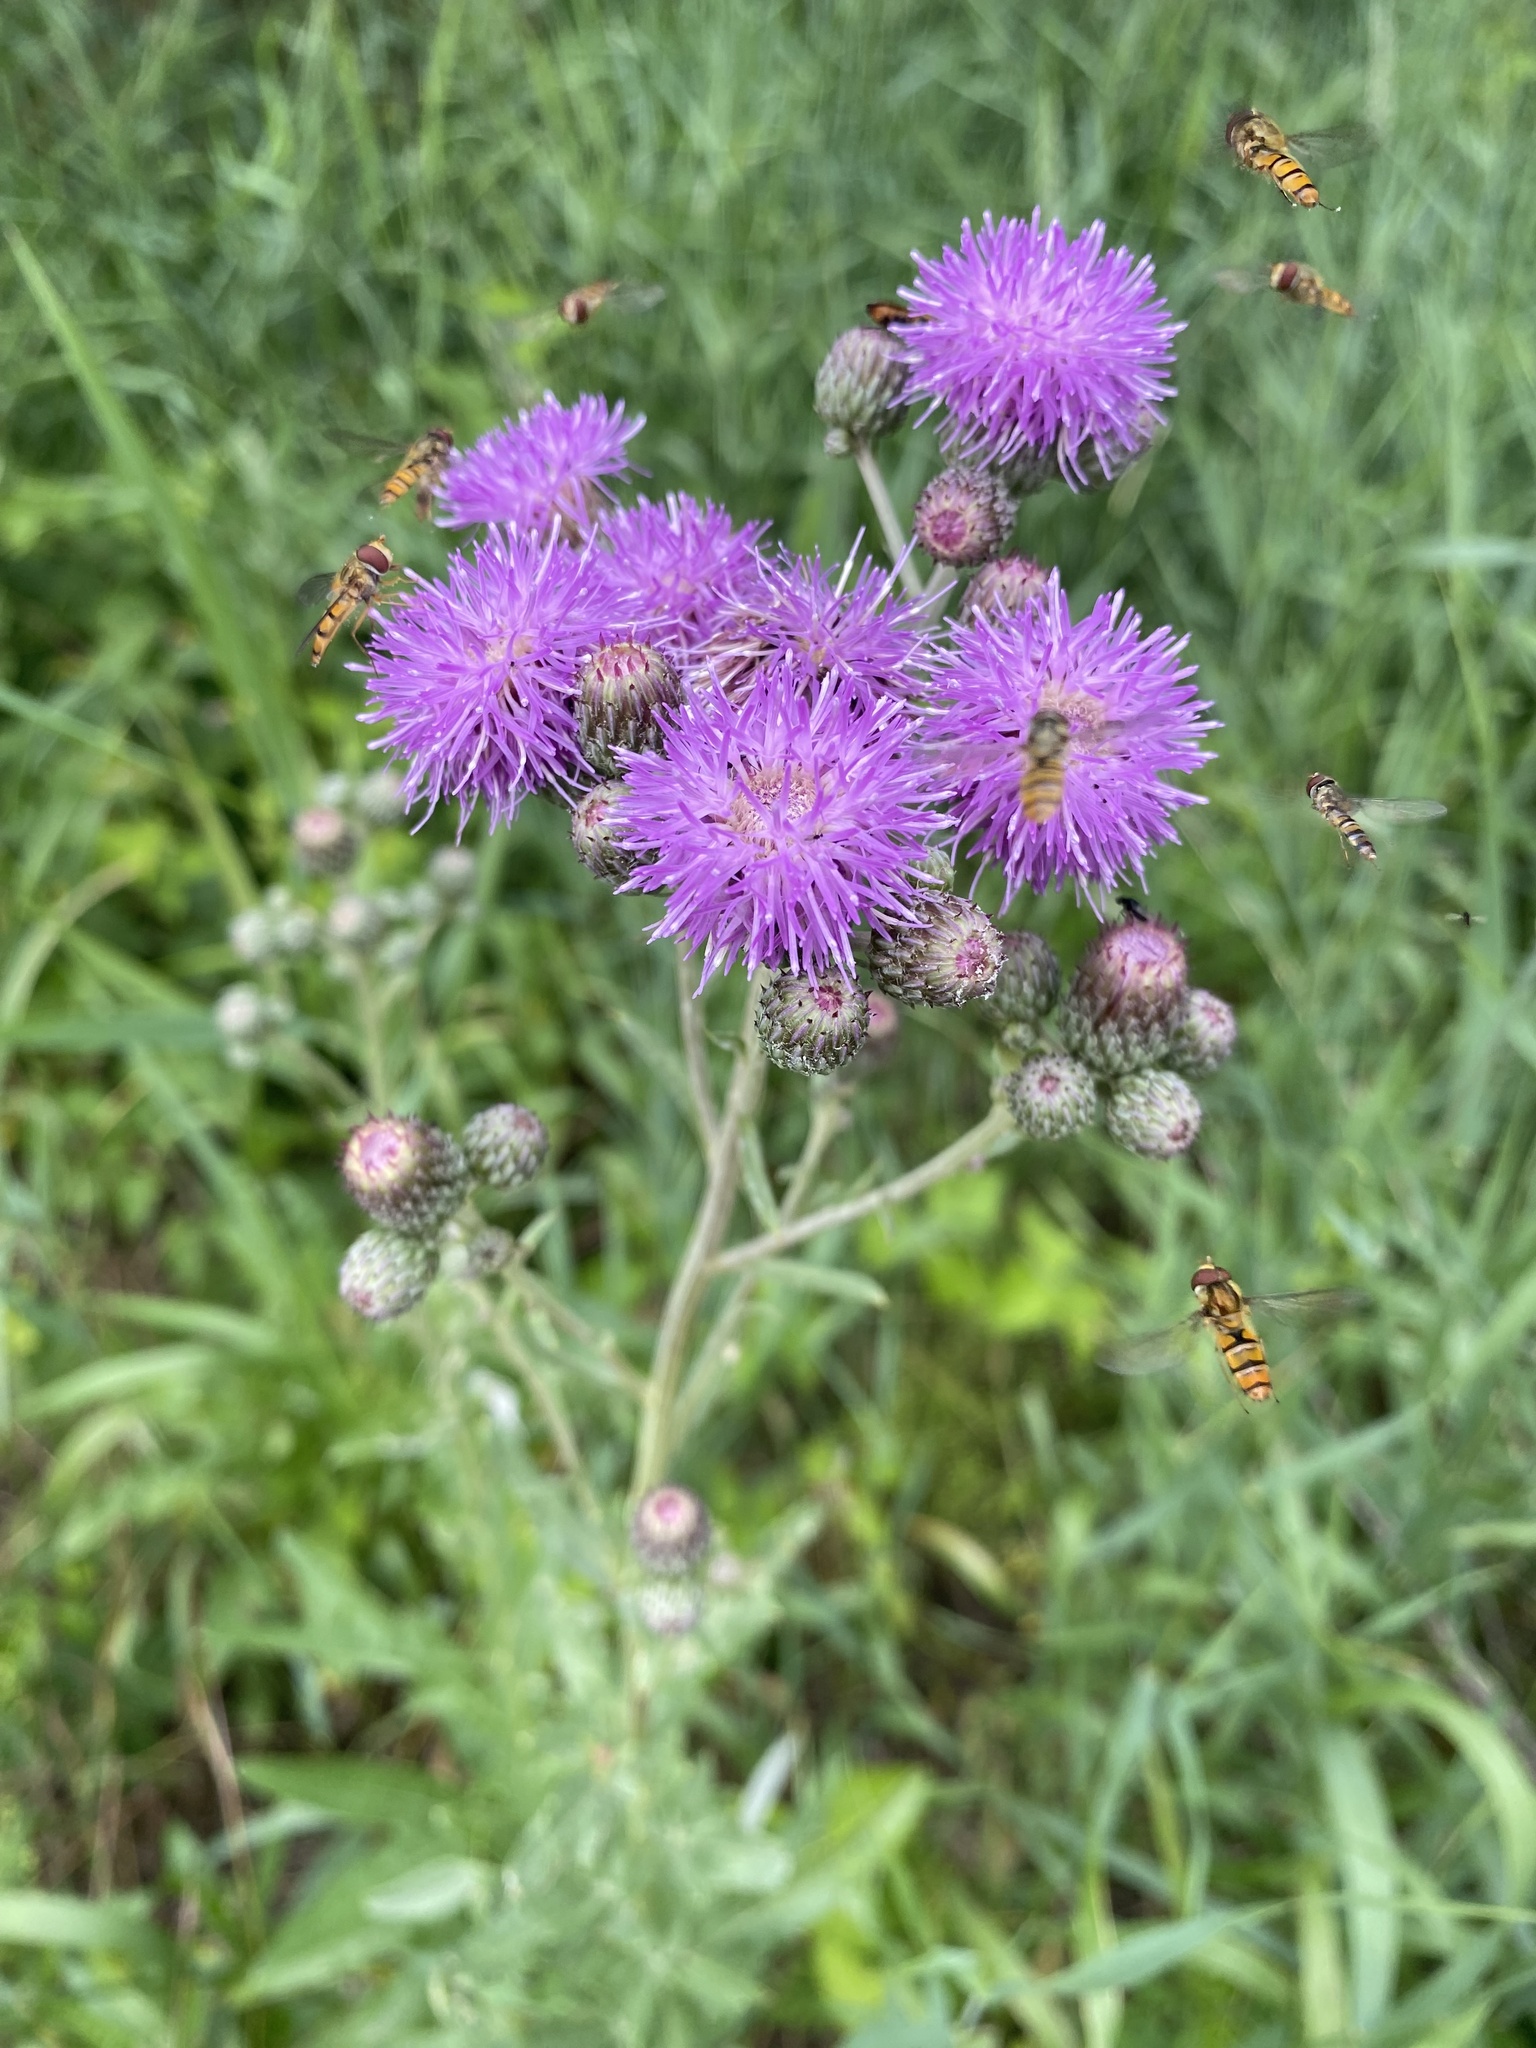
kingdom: Plantae
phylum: Tracheophyta
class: Magnoliopsida
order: Asterales
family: Asteraceae
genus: Cirsium
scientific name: Cirsium arvense
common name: Creeping thistle
